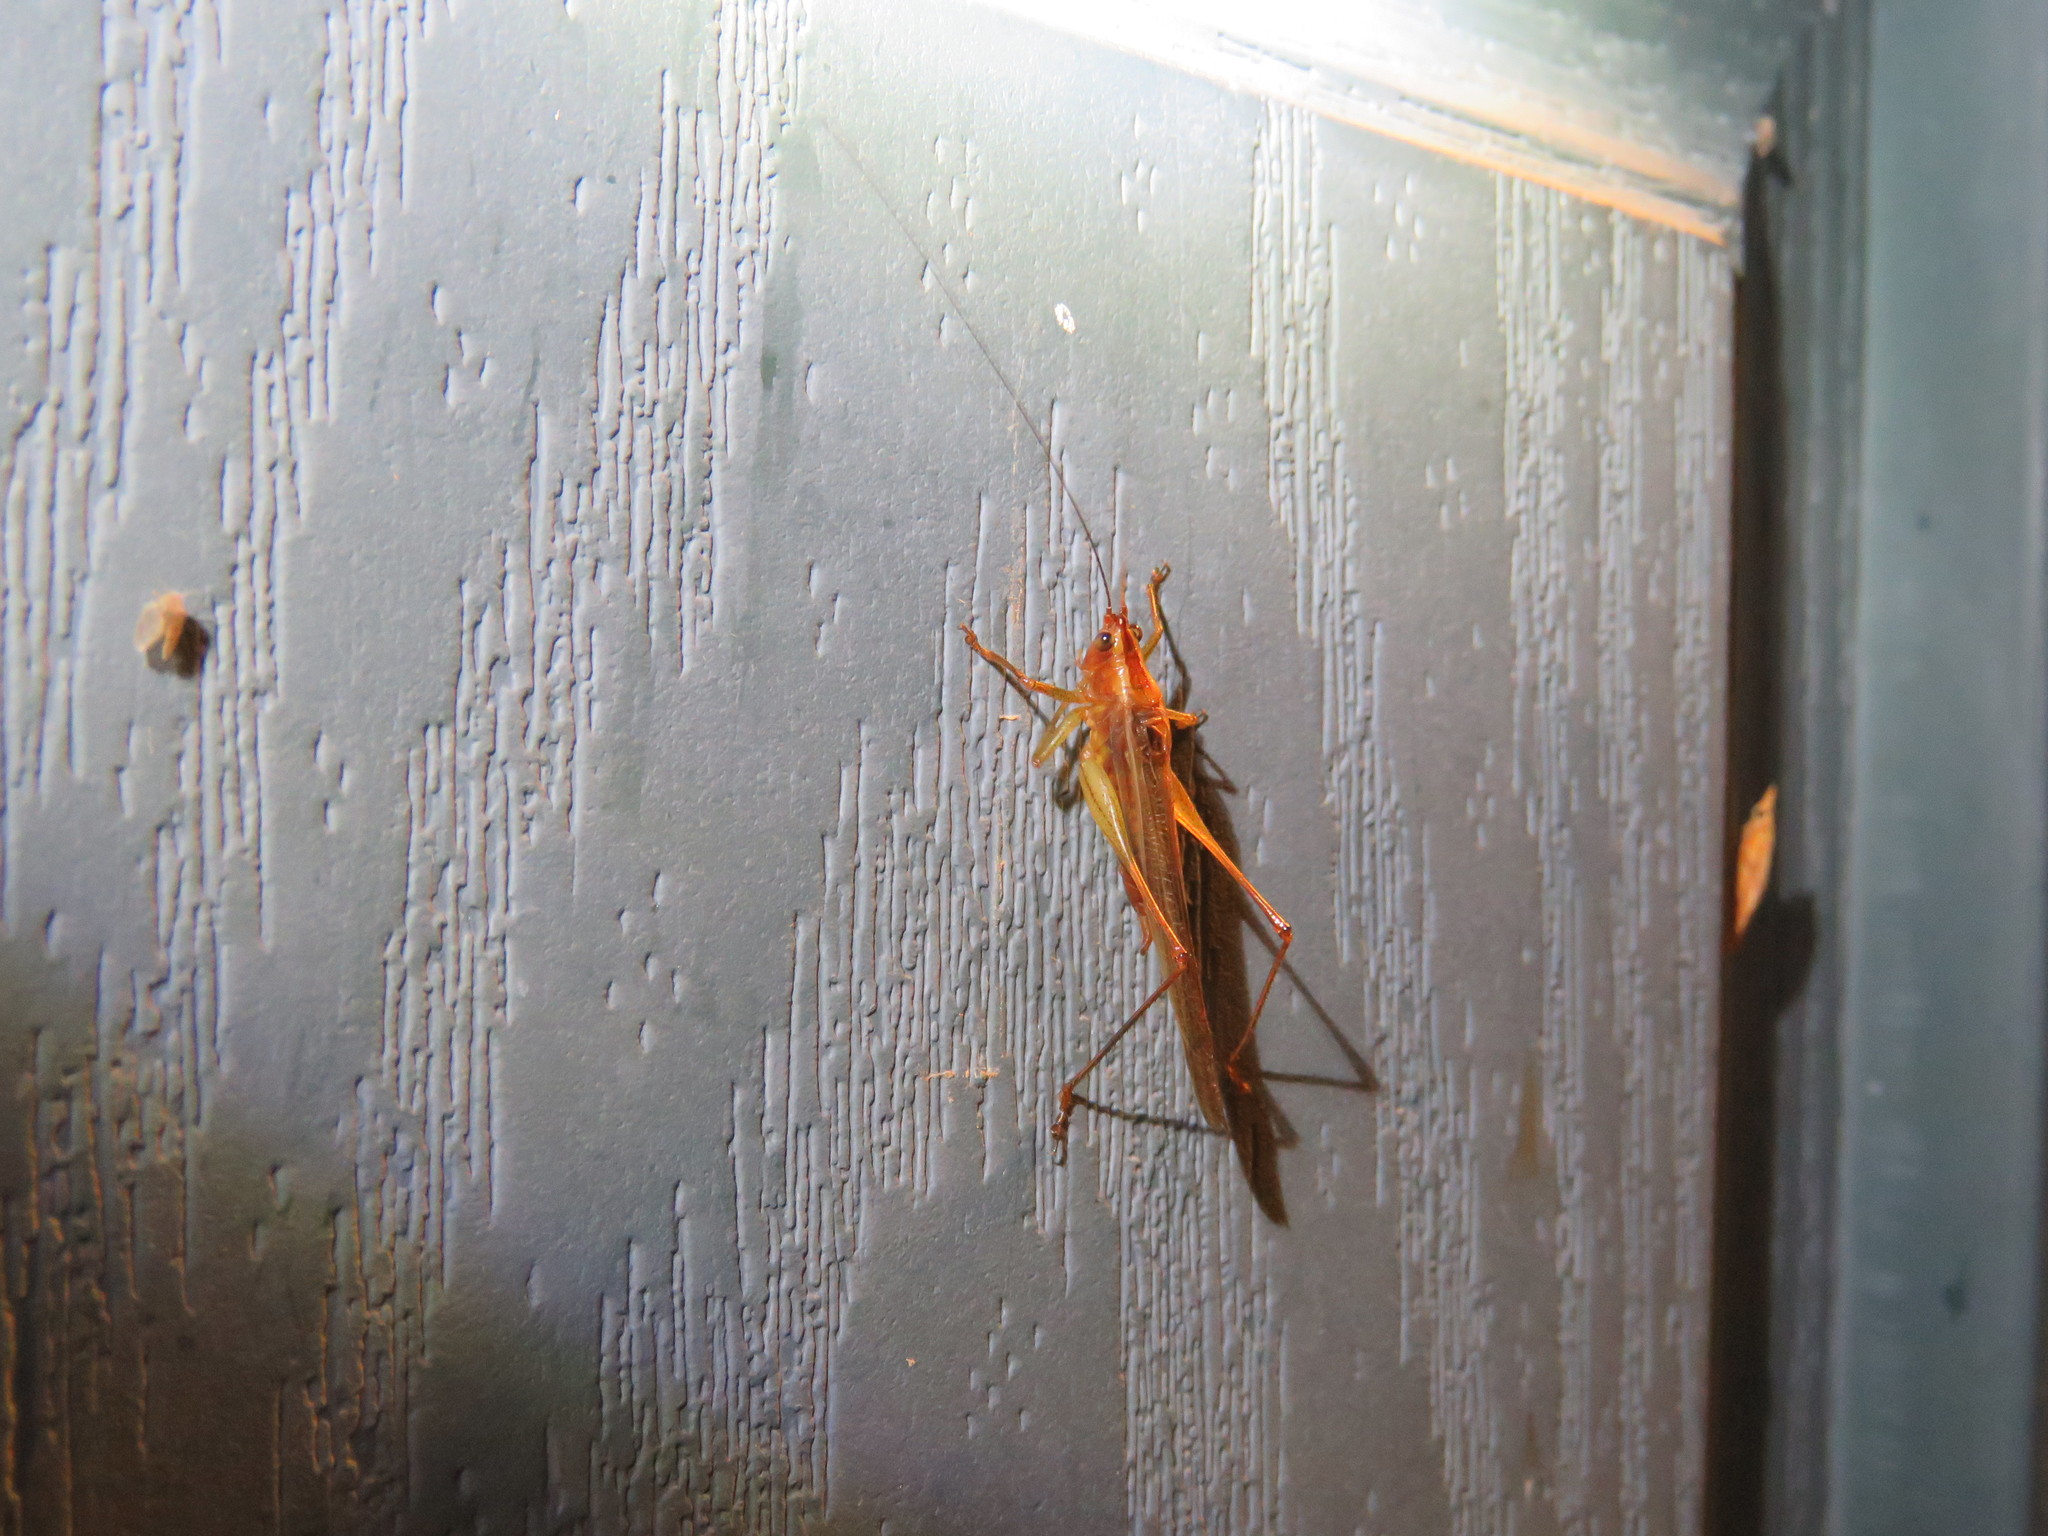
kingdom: Animalia
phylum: Arthropoda
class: Insecta
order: Orthoptera
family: Tettigoniidae
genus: Conocephalus
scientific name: Conocephalus attenuatus
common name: Long-tailed meadow katydid
